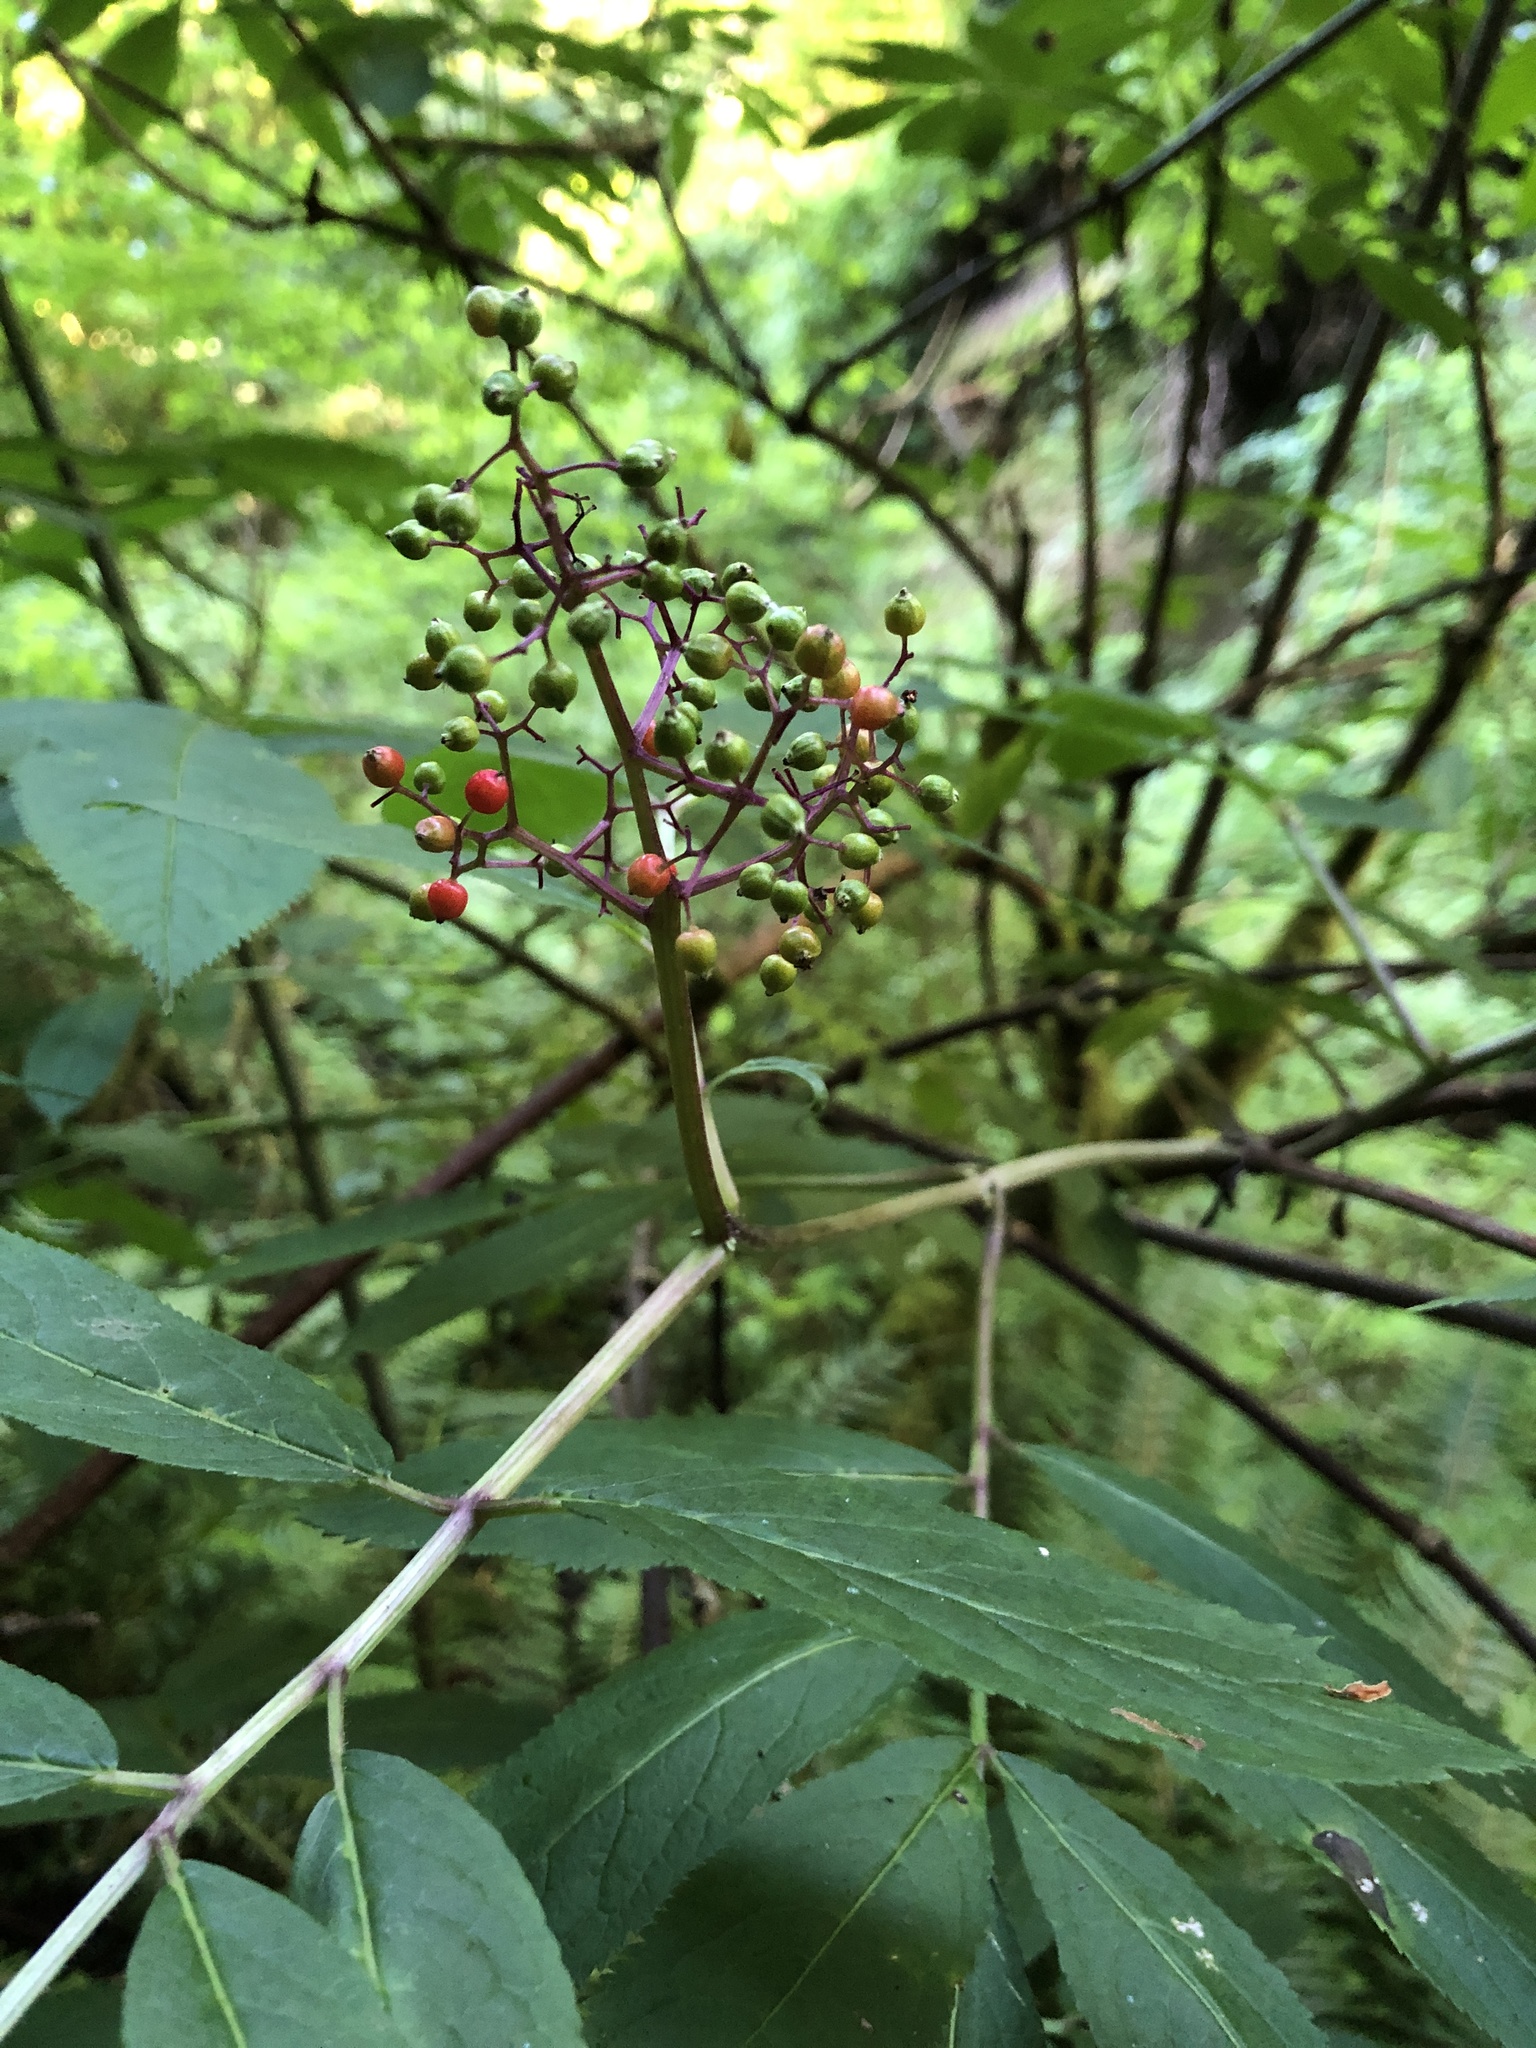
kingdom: Plantae
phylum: Tracheophyta
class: Magnoliopsida
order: Dipsacales
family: Viburnaceae
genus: Sambucus
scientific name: Sambucus racemosa
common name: Red-berried elder
